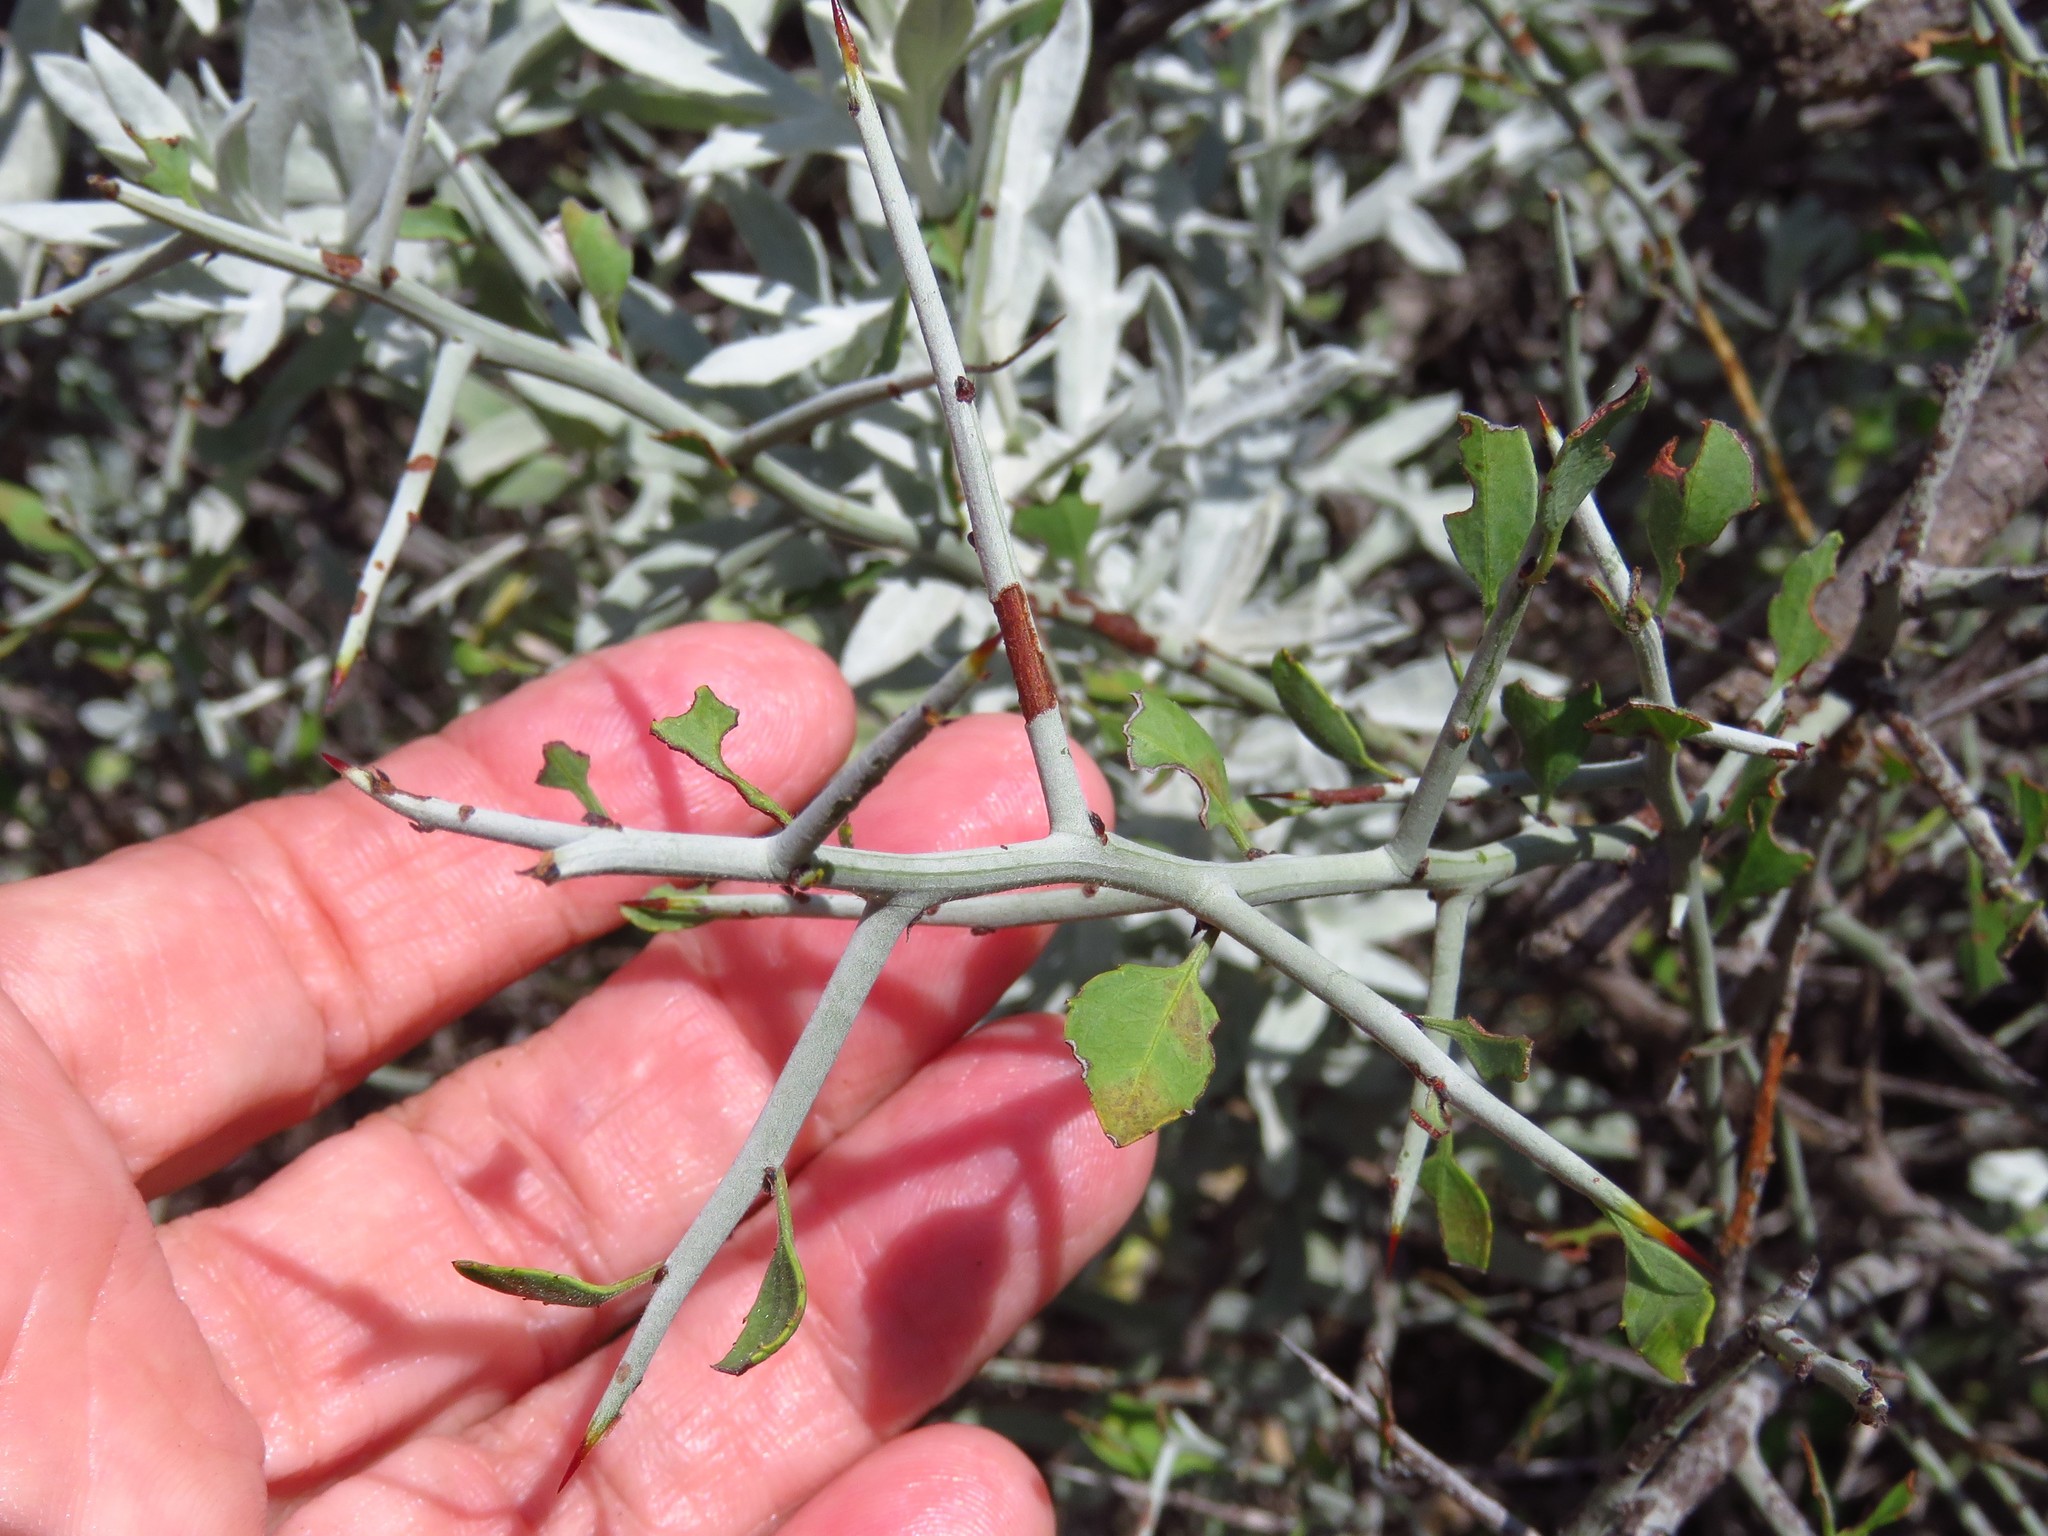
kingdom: Plantae
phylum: Tracheophyta
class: Magnoliopsida
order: Rosales
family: Rhamnaceae
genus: Sarcomphalus
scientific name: Sarcomphalus obtusifolius
